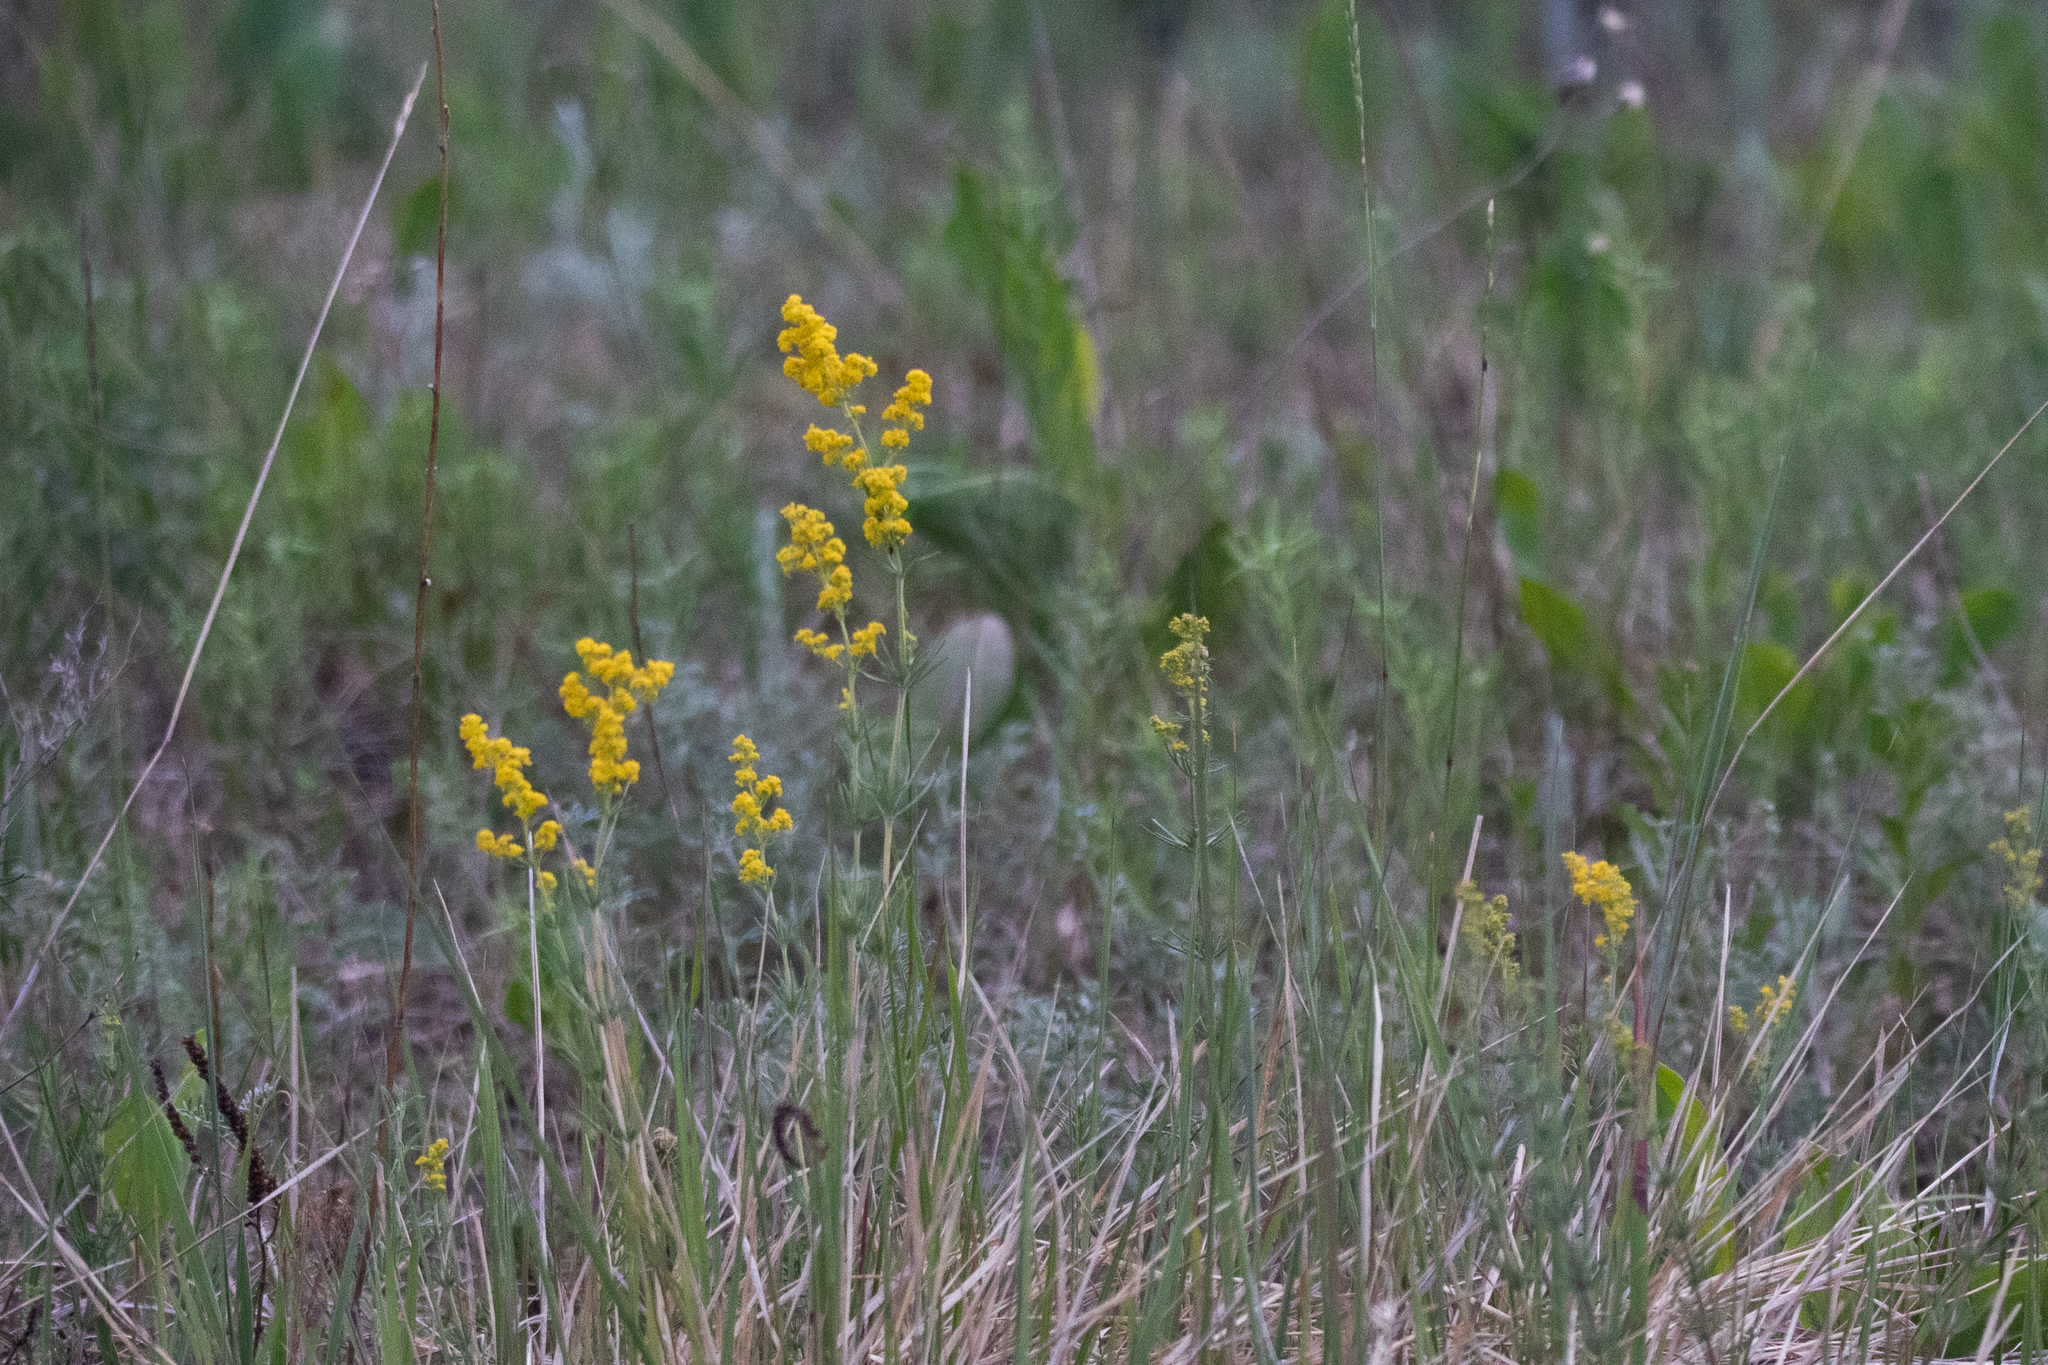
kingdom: Plantae
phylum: Tracheophyta
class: Magnoliopsida
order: Gentianales
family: Rubiaceae
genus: Galium
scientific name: Galium verum
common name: Lady's bedstraw
